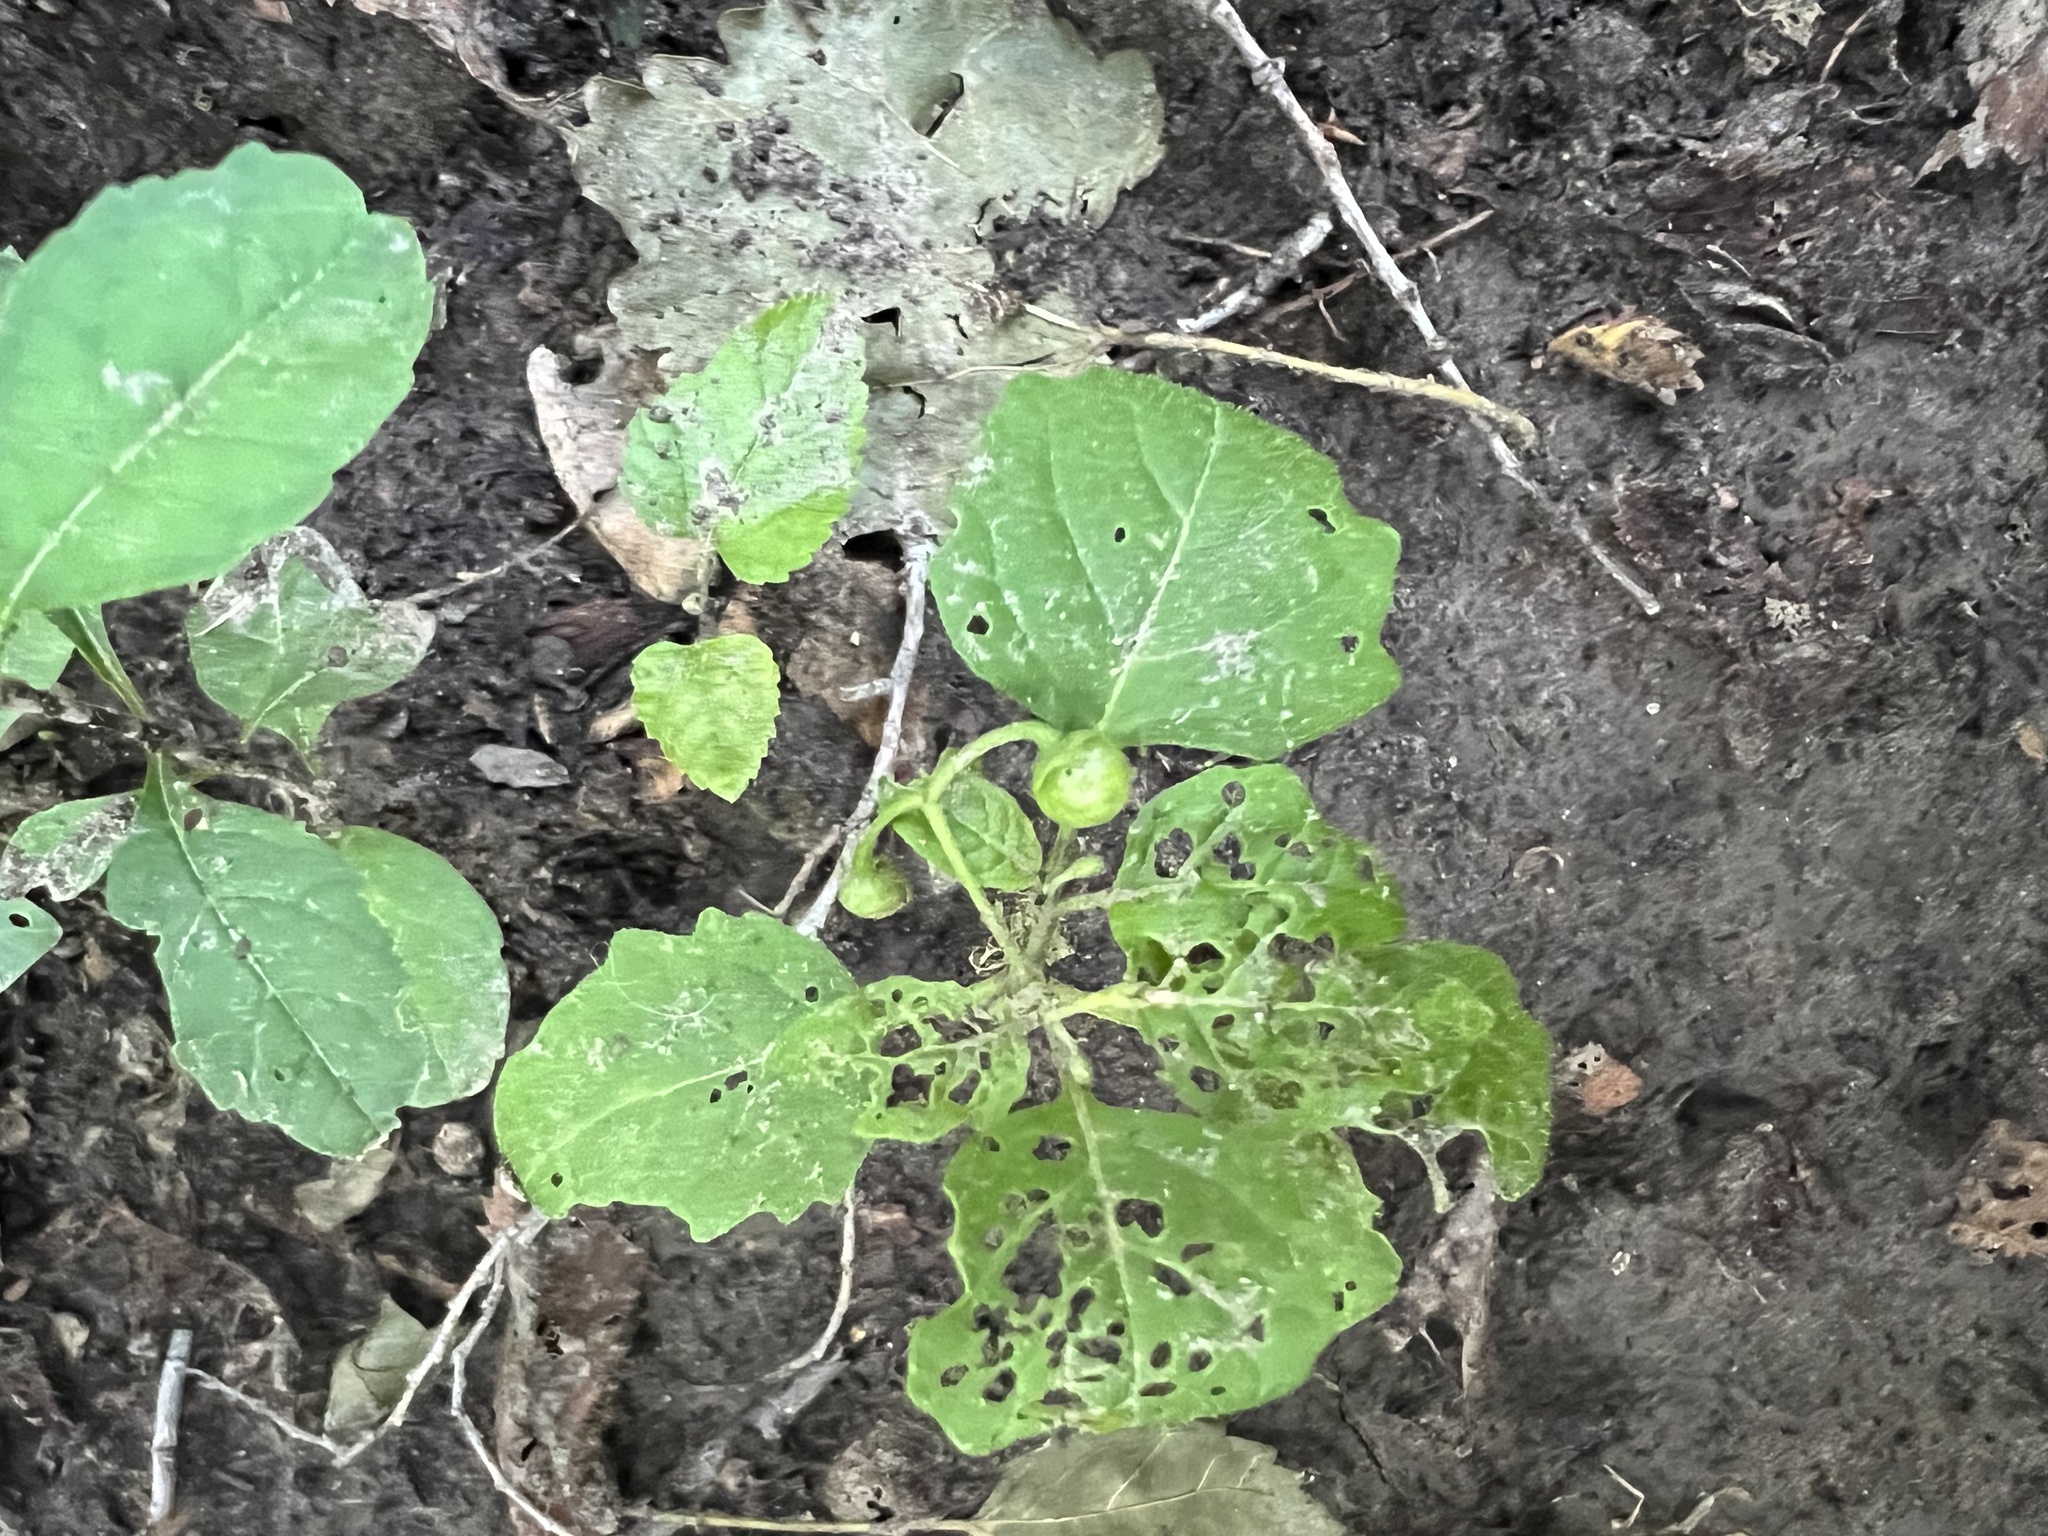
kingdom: Plantae
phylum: Tracheophyta
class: Magnoliopsida
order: Solanales
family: Solanaceae
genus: Solanum
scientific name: Solanum emulans
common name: Eastern black nightshade
